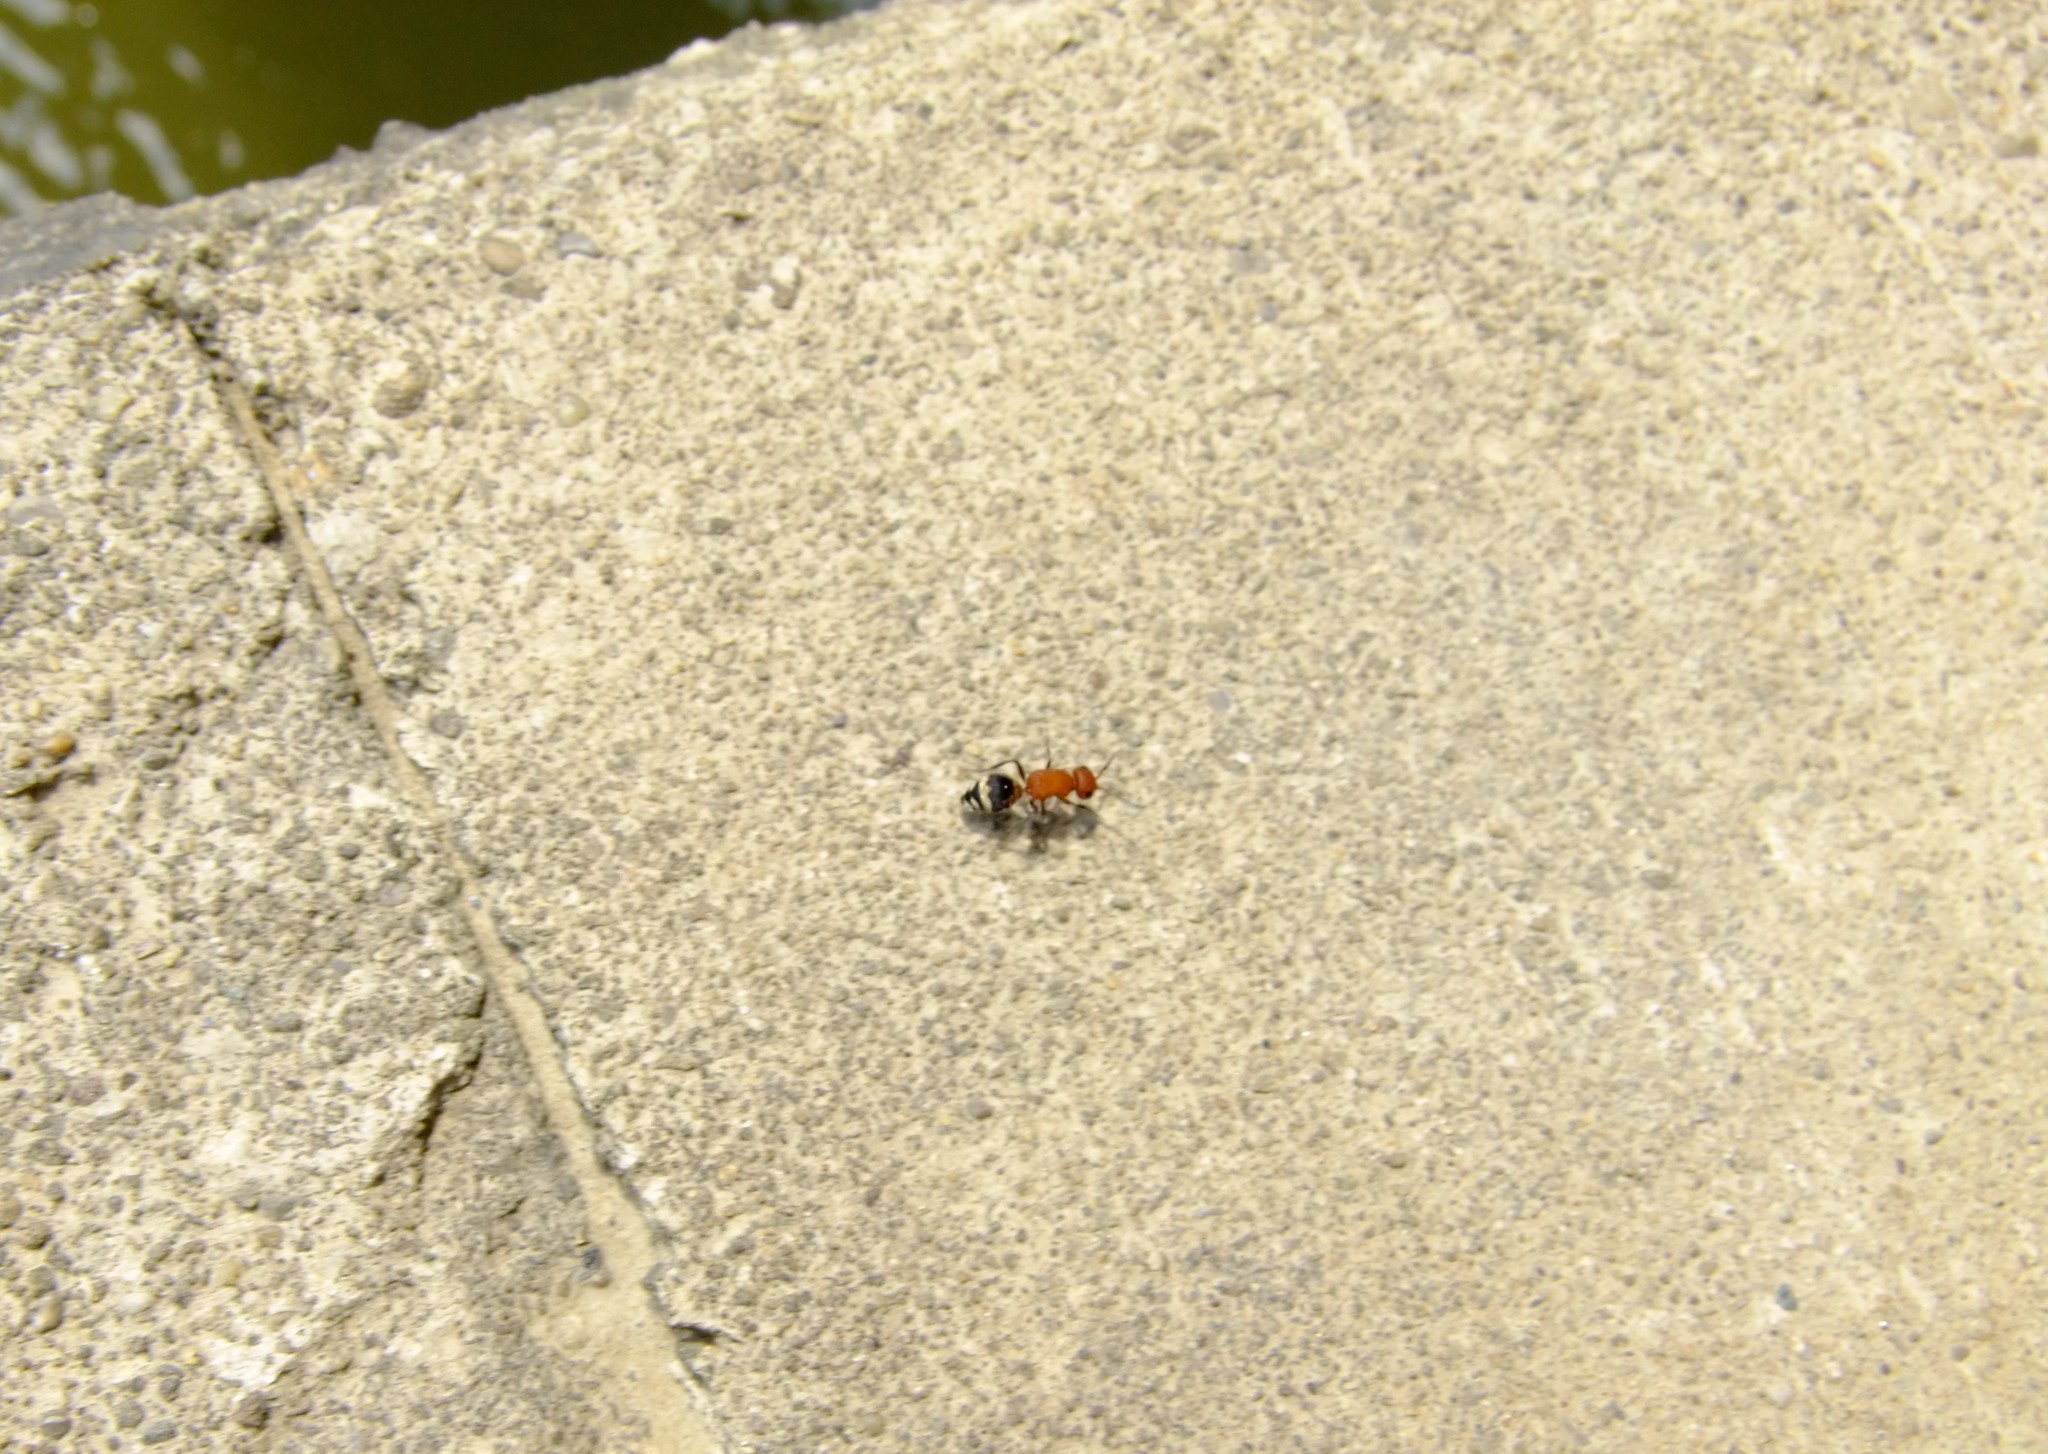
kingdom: Animalia
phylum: Arthropoda
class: Insecta
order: Hymenoptera
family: Mutillidae
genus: Timulla
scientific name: Timulla
